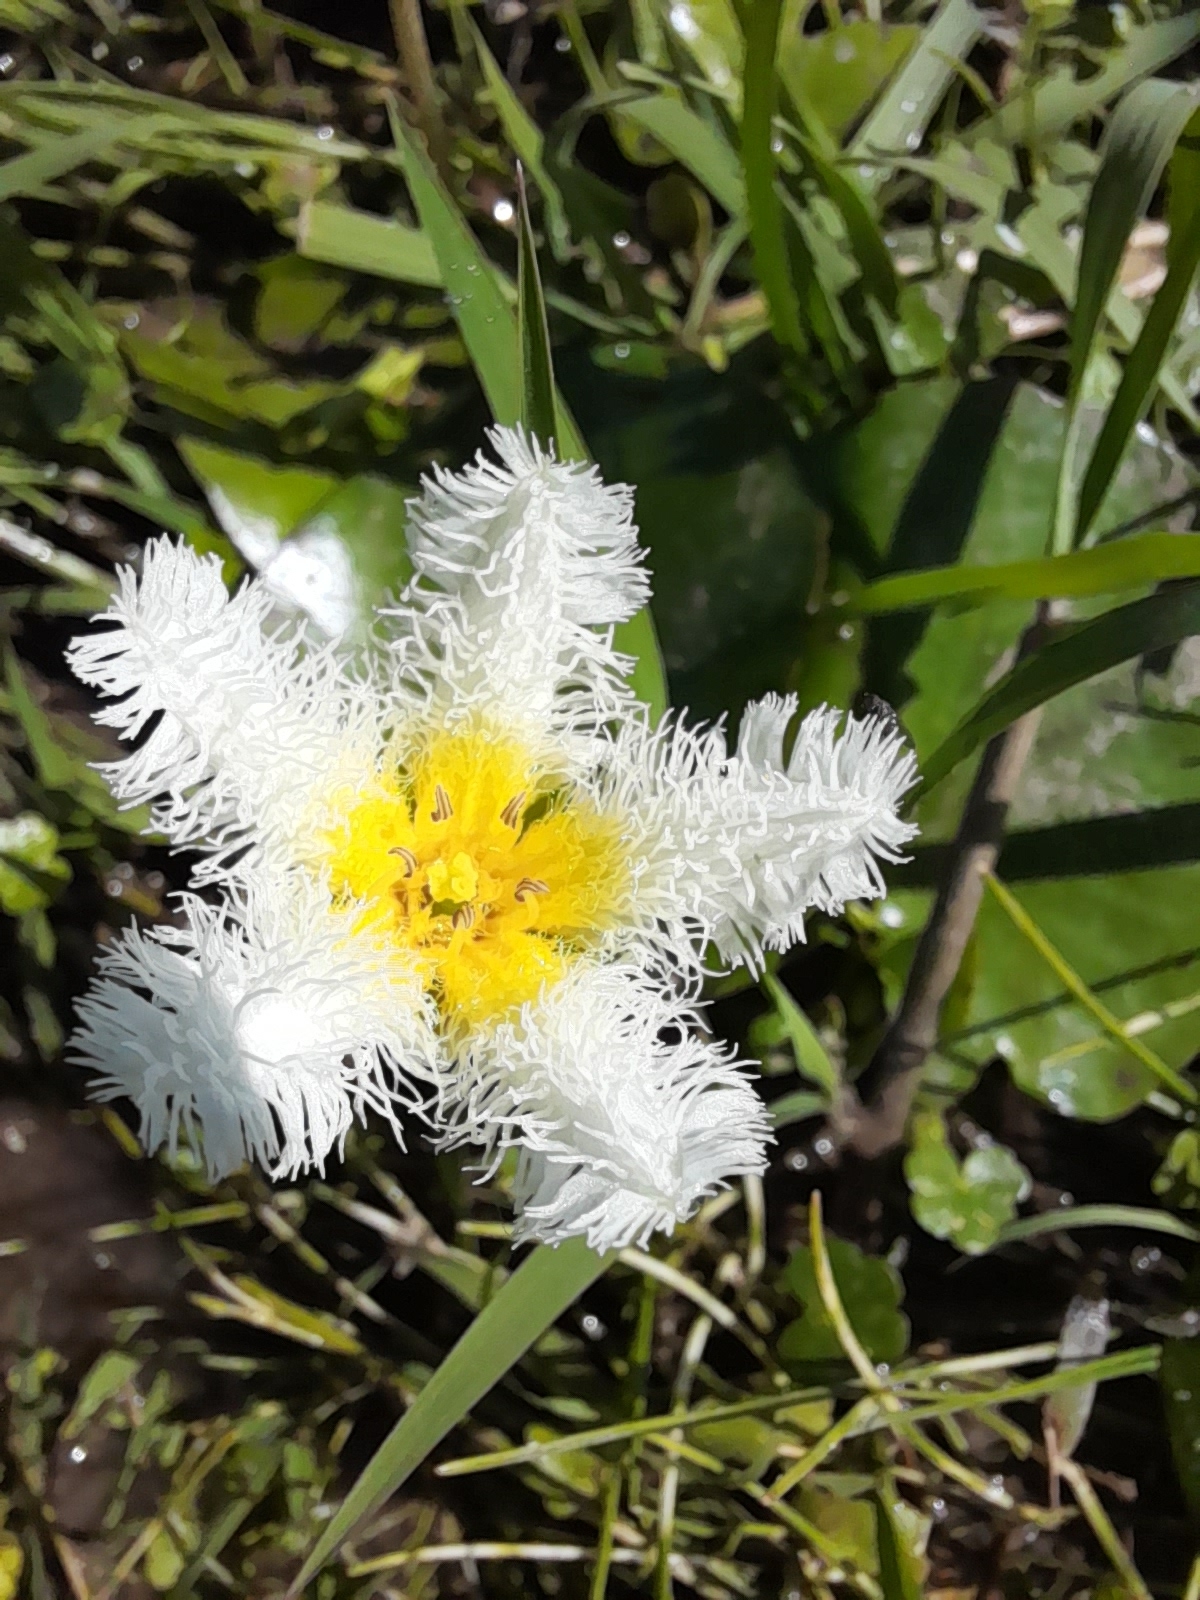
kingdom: Plantae
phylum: Tracheophyta
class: Magnoliopsida
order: Asterales
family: Menyanthaceae
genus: Nymphoides
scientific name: Nymphoides humboldtiana
